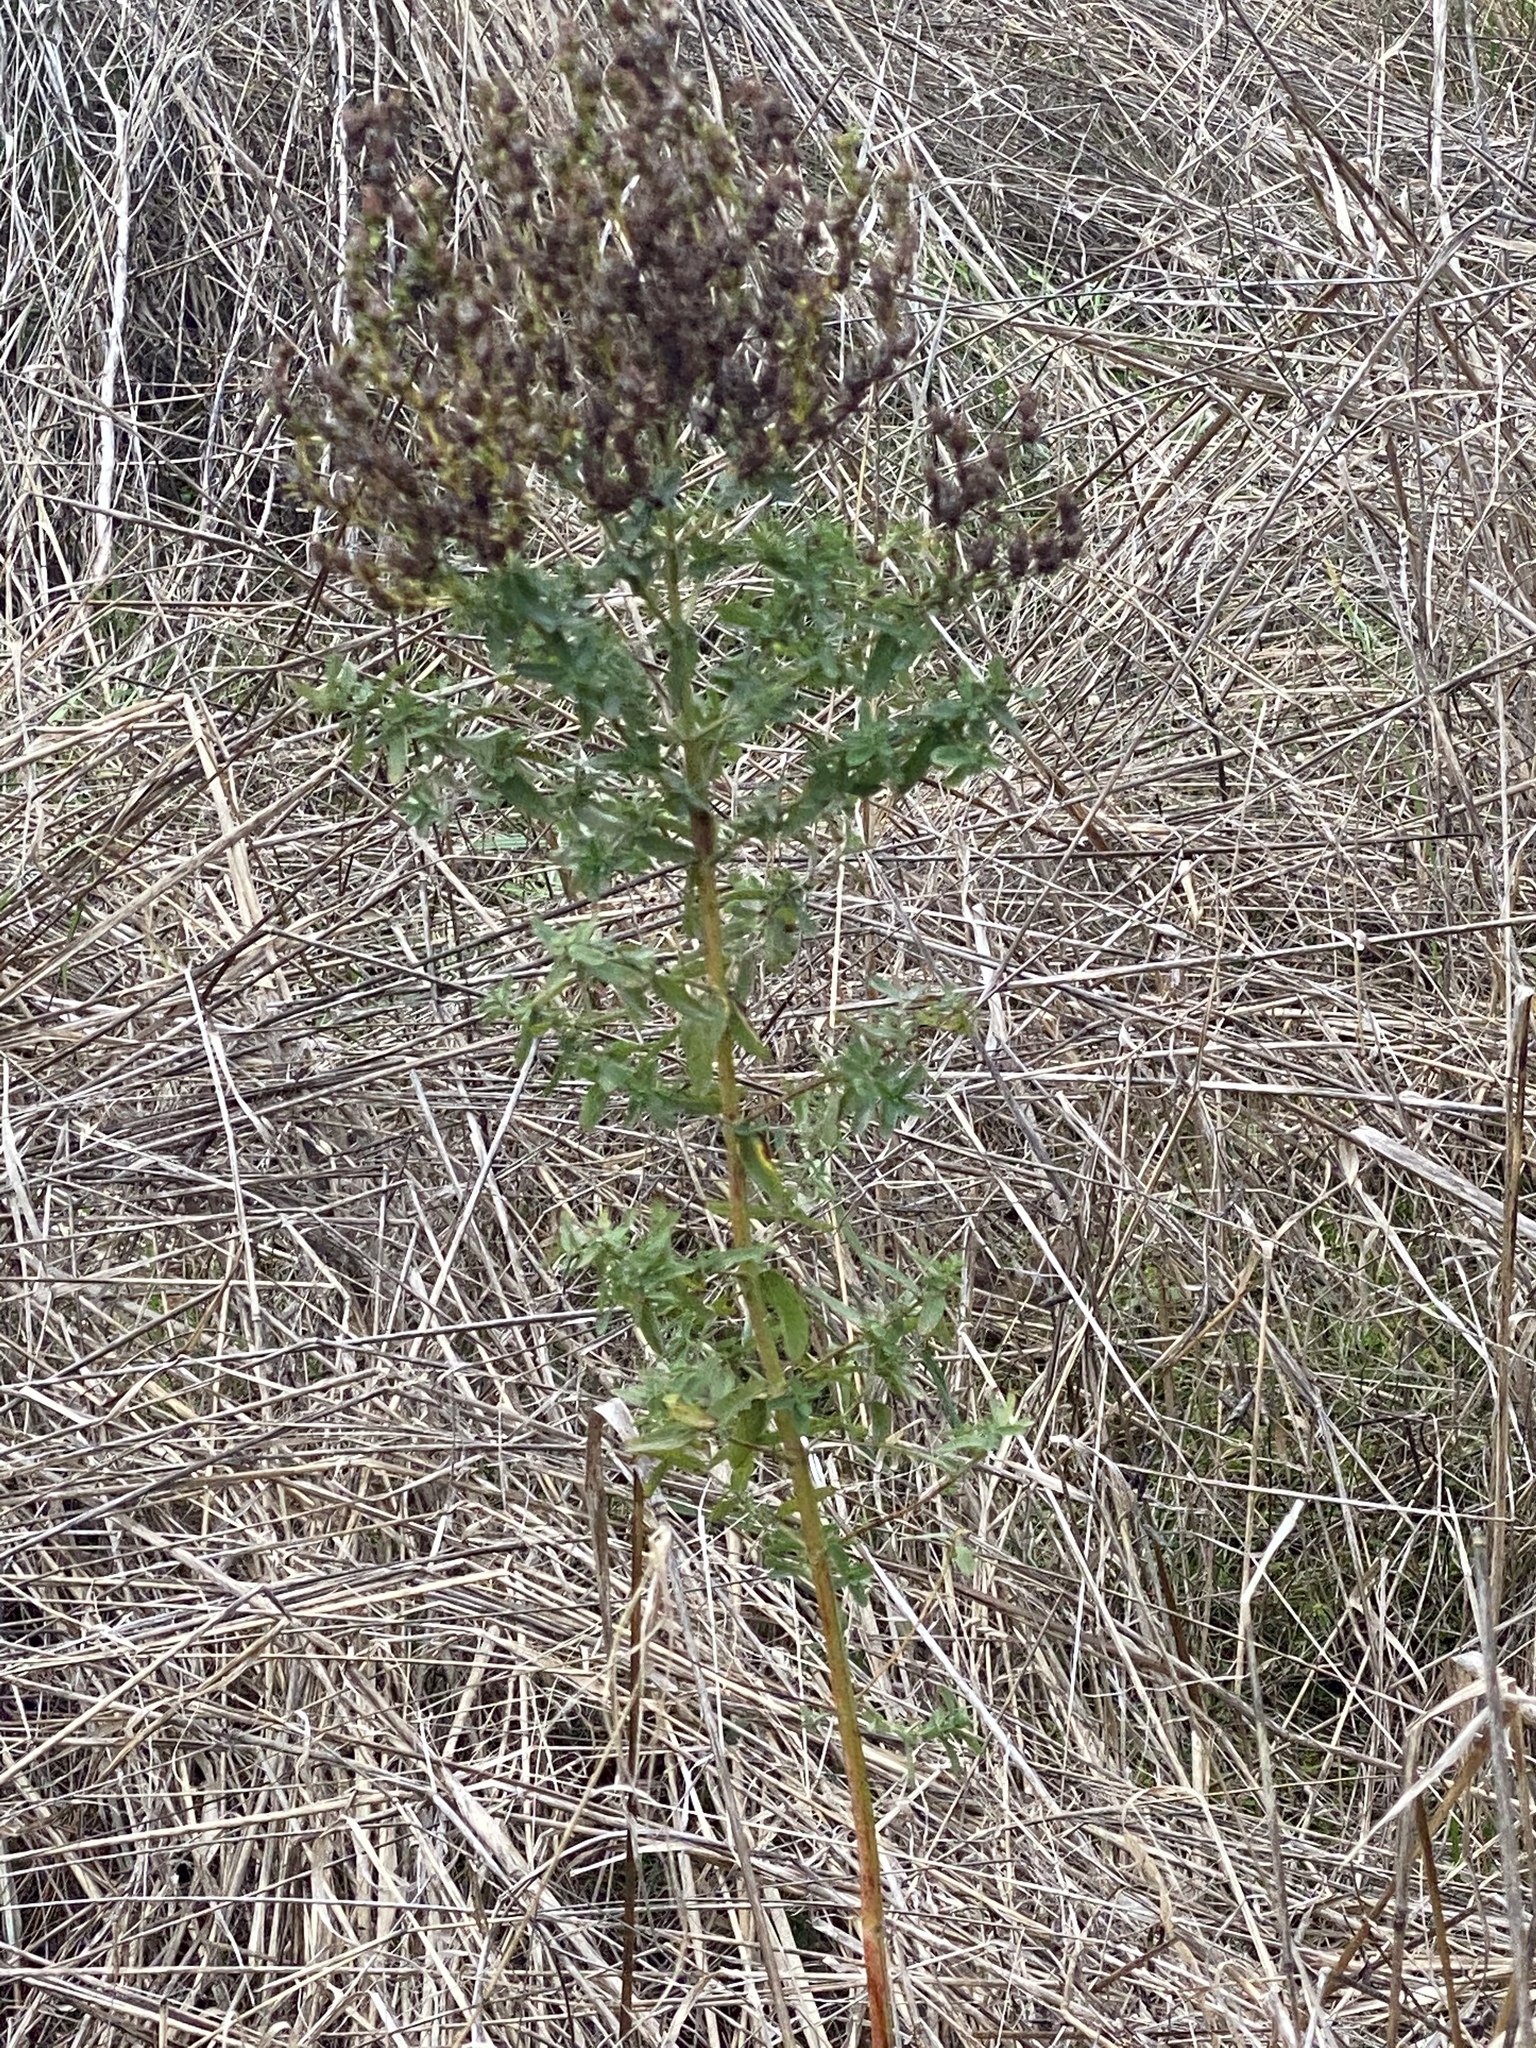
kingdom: Plantae
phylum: Tracheophyta
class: Magnoliopsida
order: Malpighiales
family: Hypericaceae
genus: Hypericum
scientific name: Hypericum perforatum
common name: Common st. johnswort
